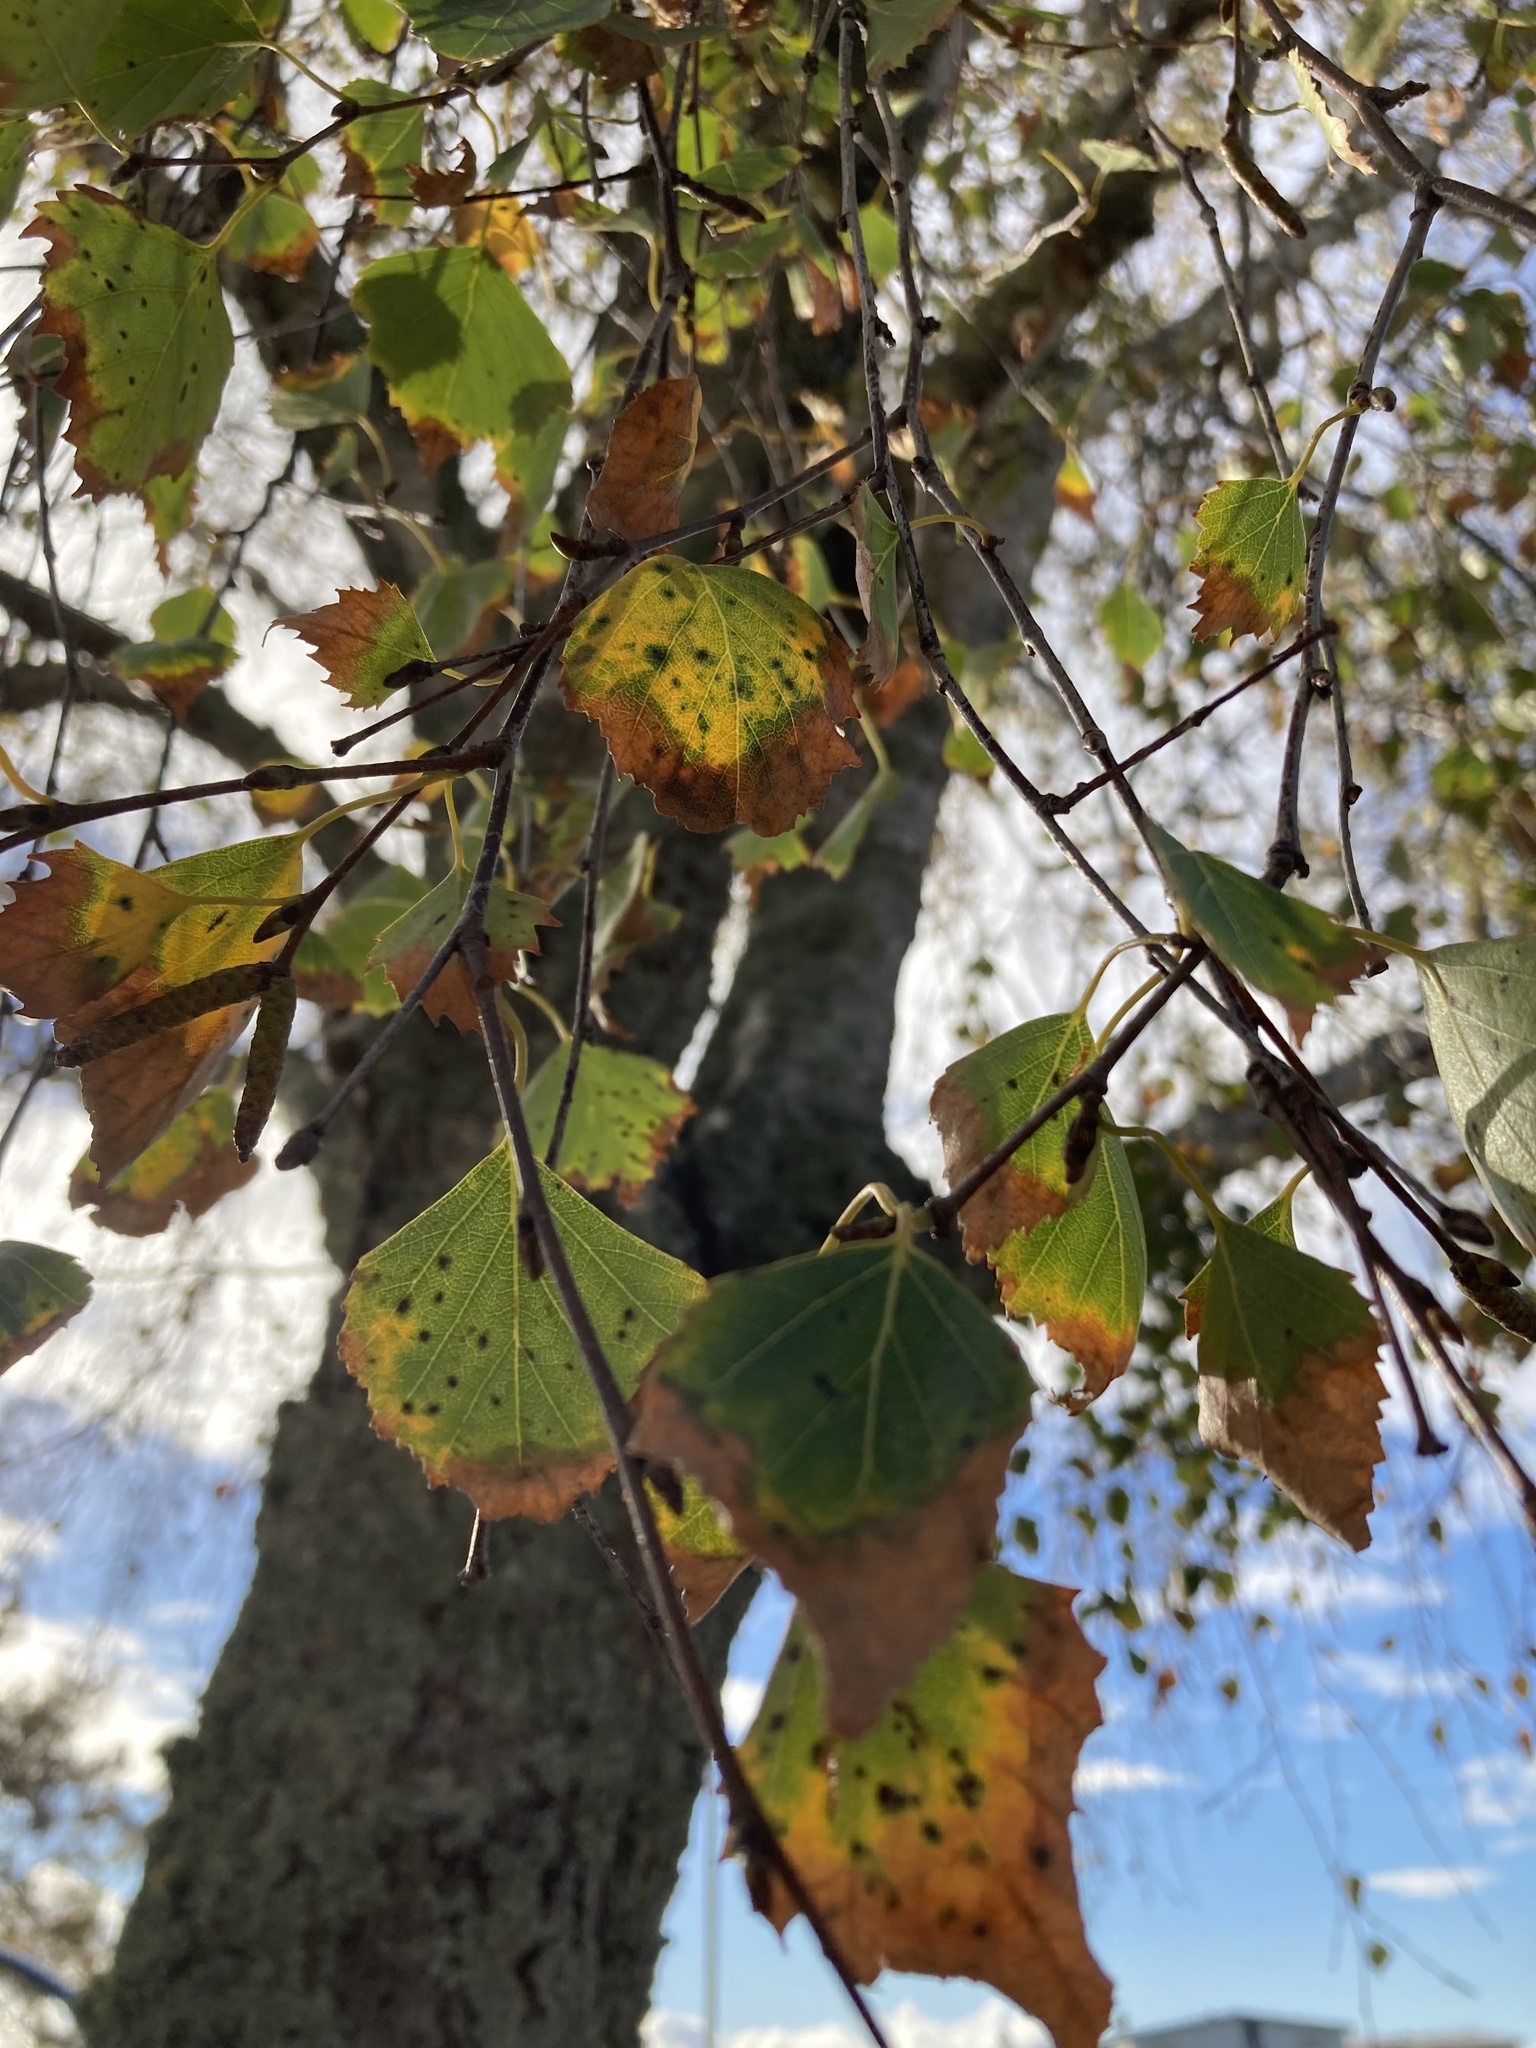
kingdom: Plantae
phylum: Tracheophyta
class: Magnoliopsida
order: Fagales
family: Betulaceae
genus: Betula
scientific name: Betula pendula
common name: Silver birch
